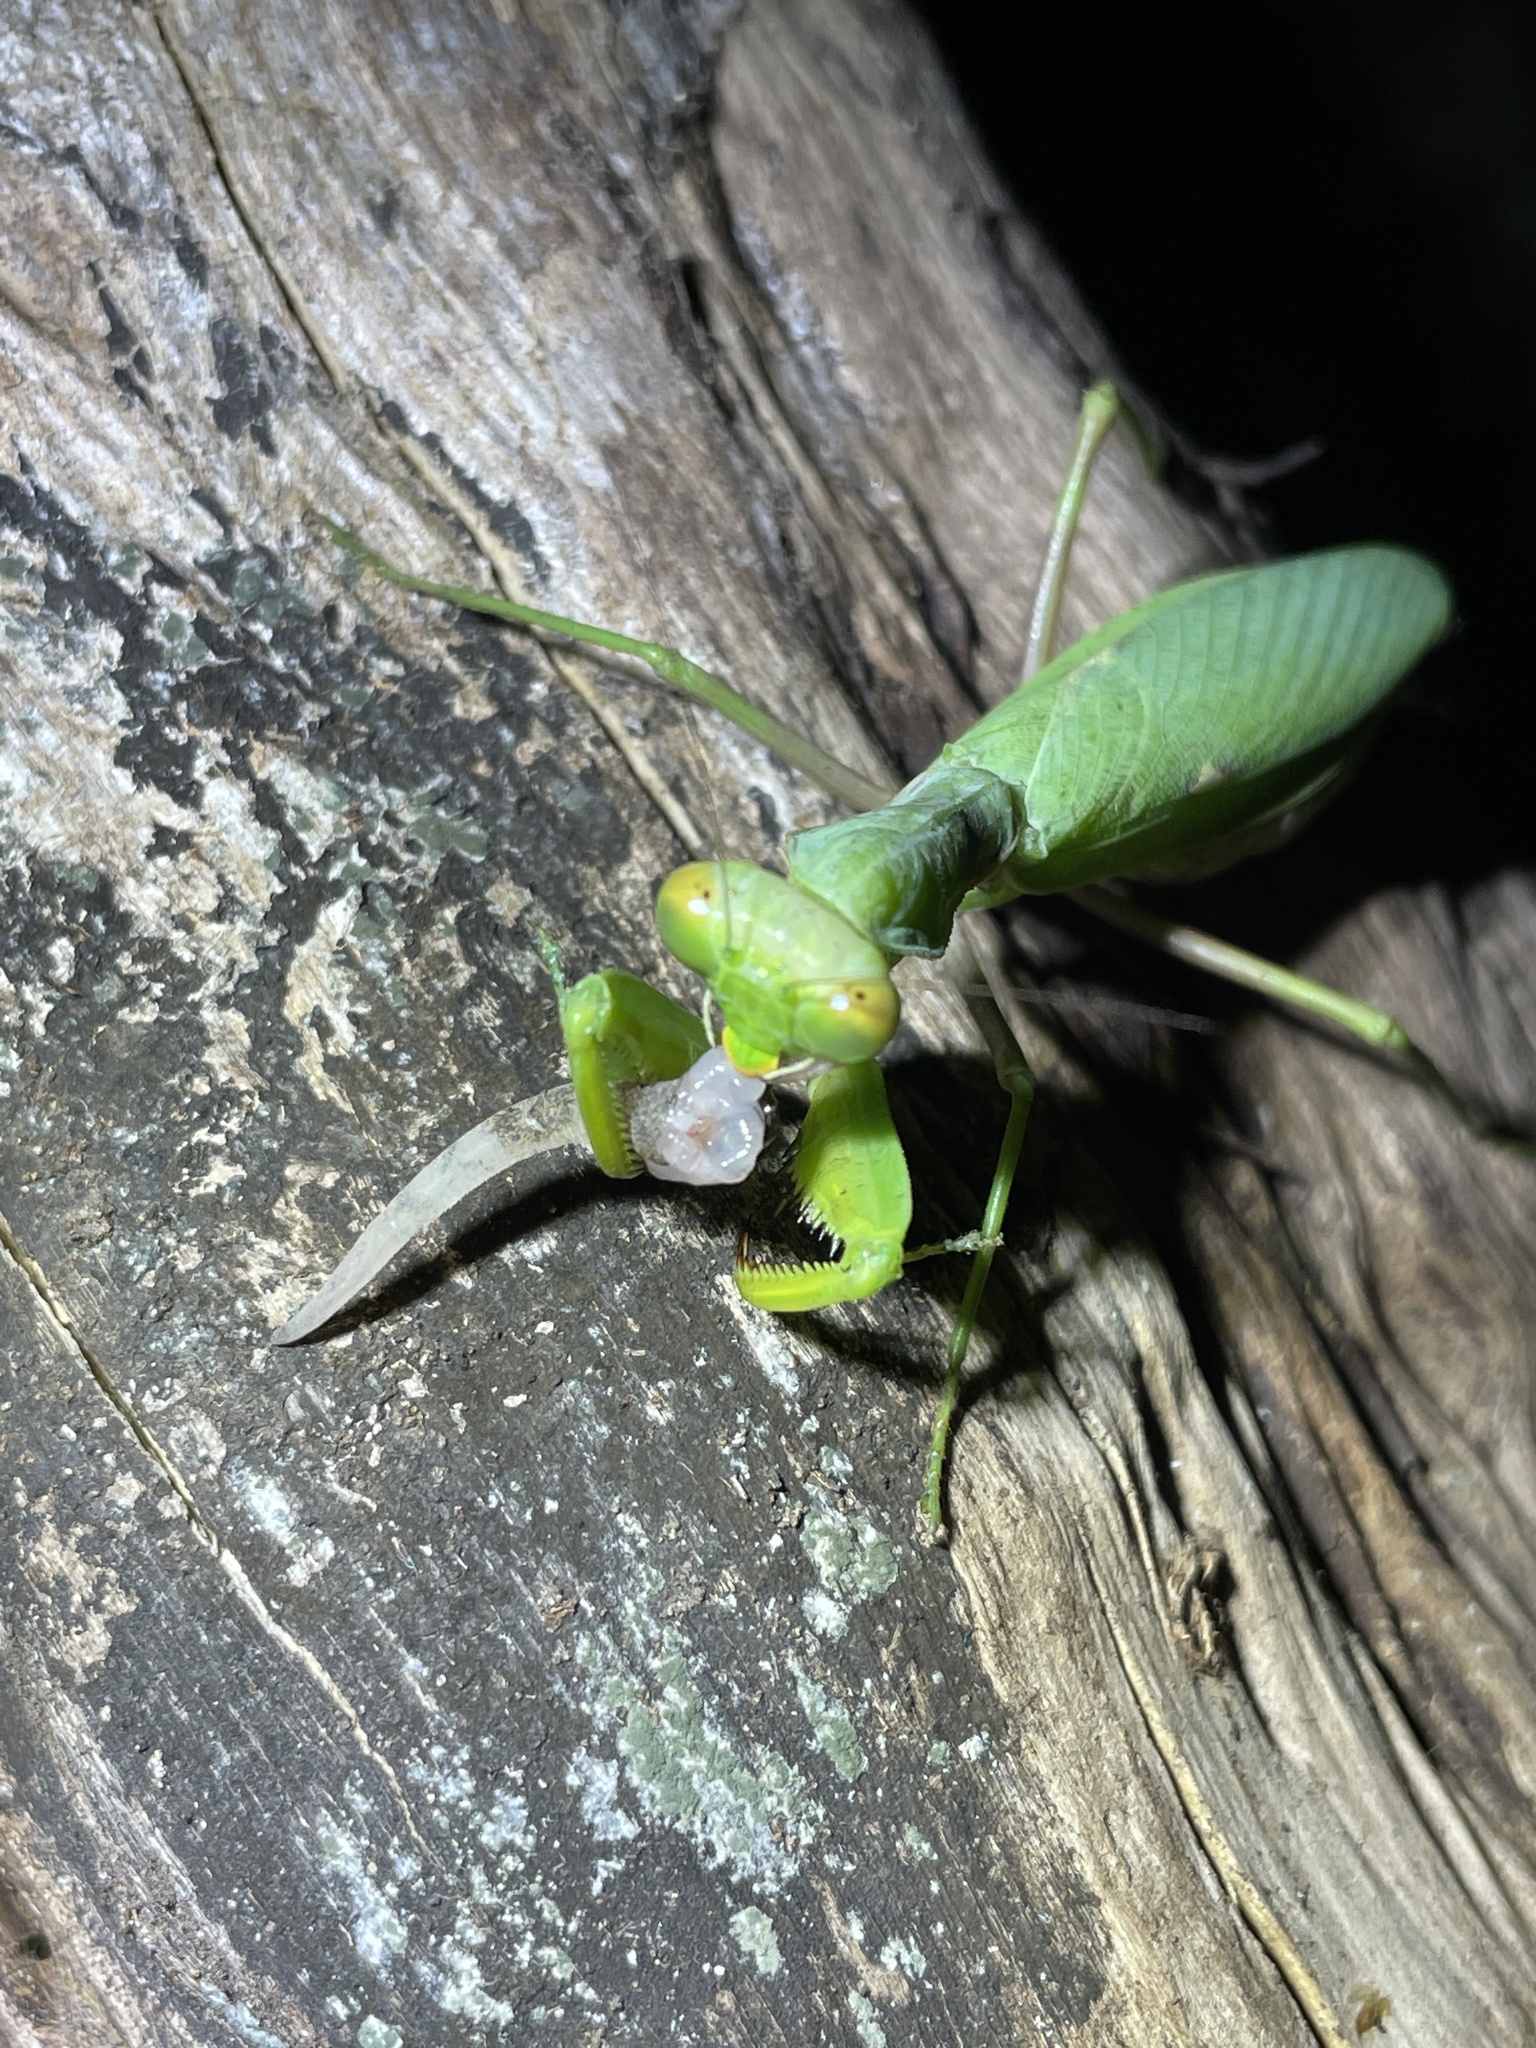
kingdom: Animalia
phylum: Arthropoda
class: Insecta
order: Mantodea
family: Mantidae
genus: Hierodula
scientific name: Hierodula patellifera
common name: Asian mantis
